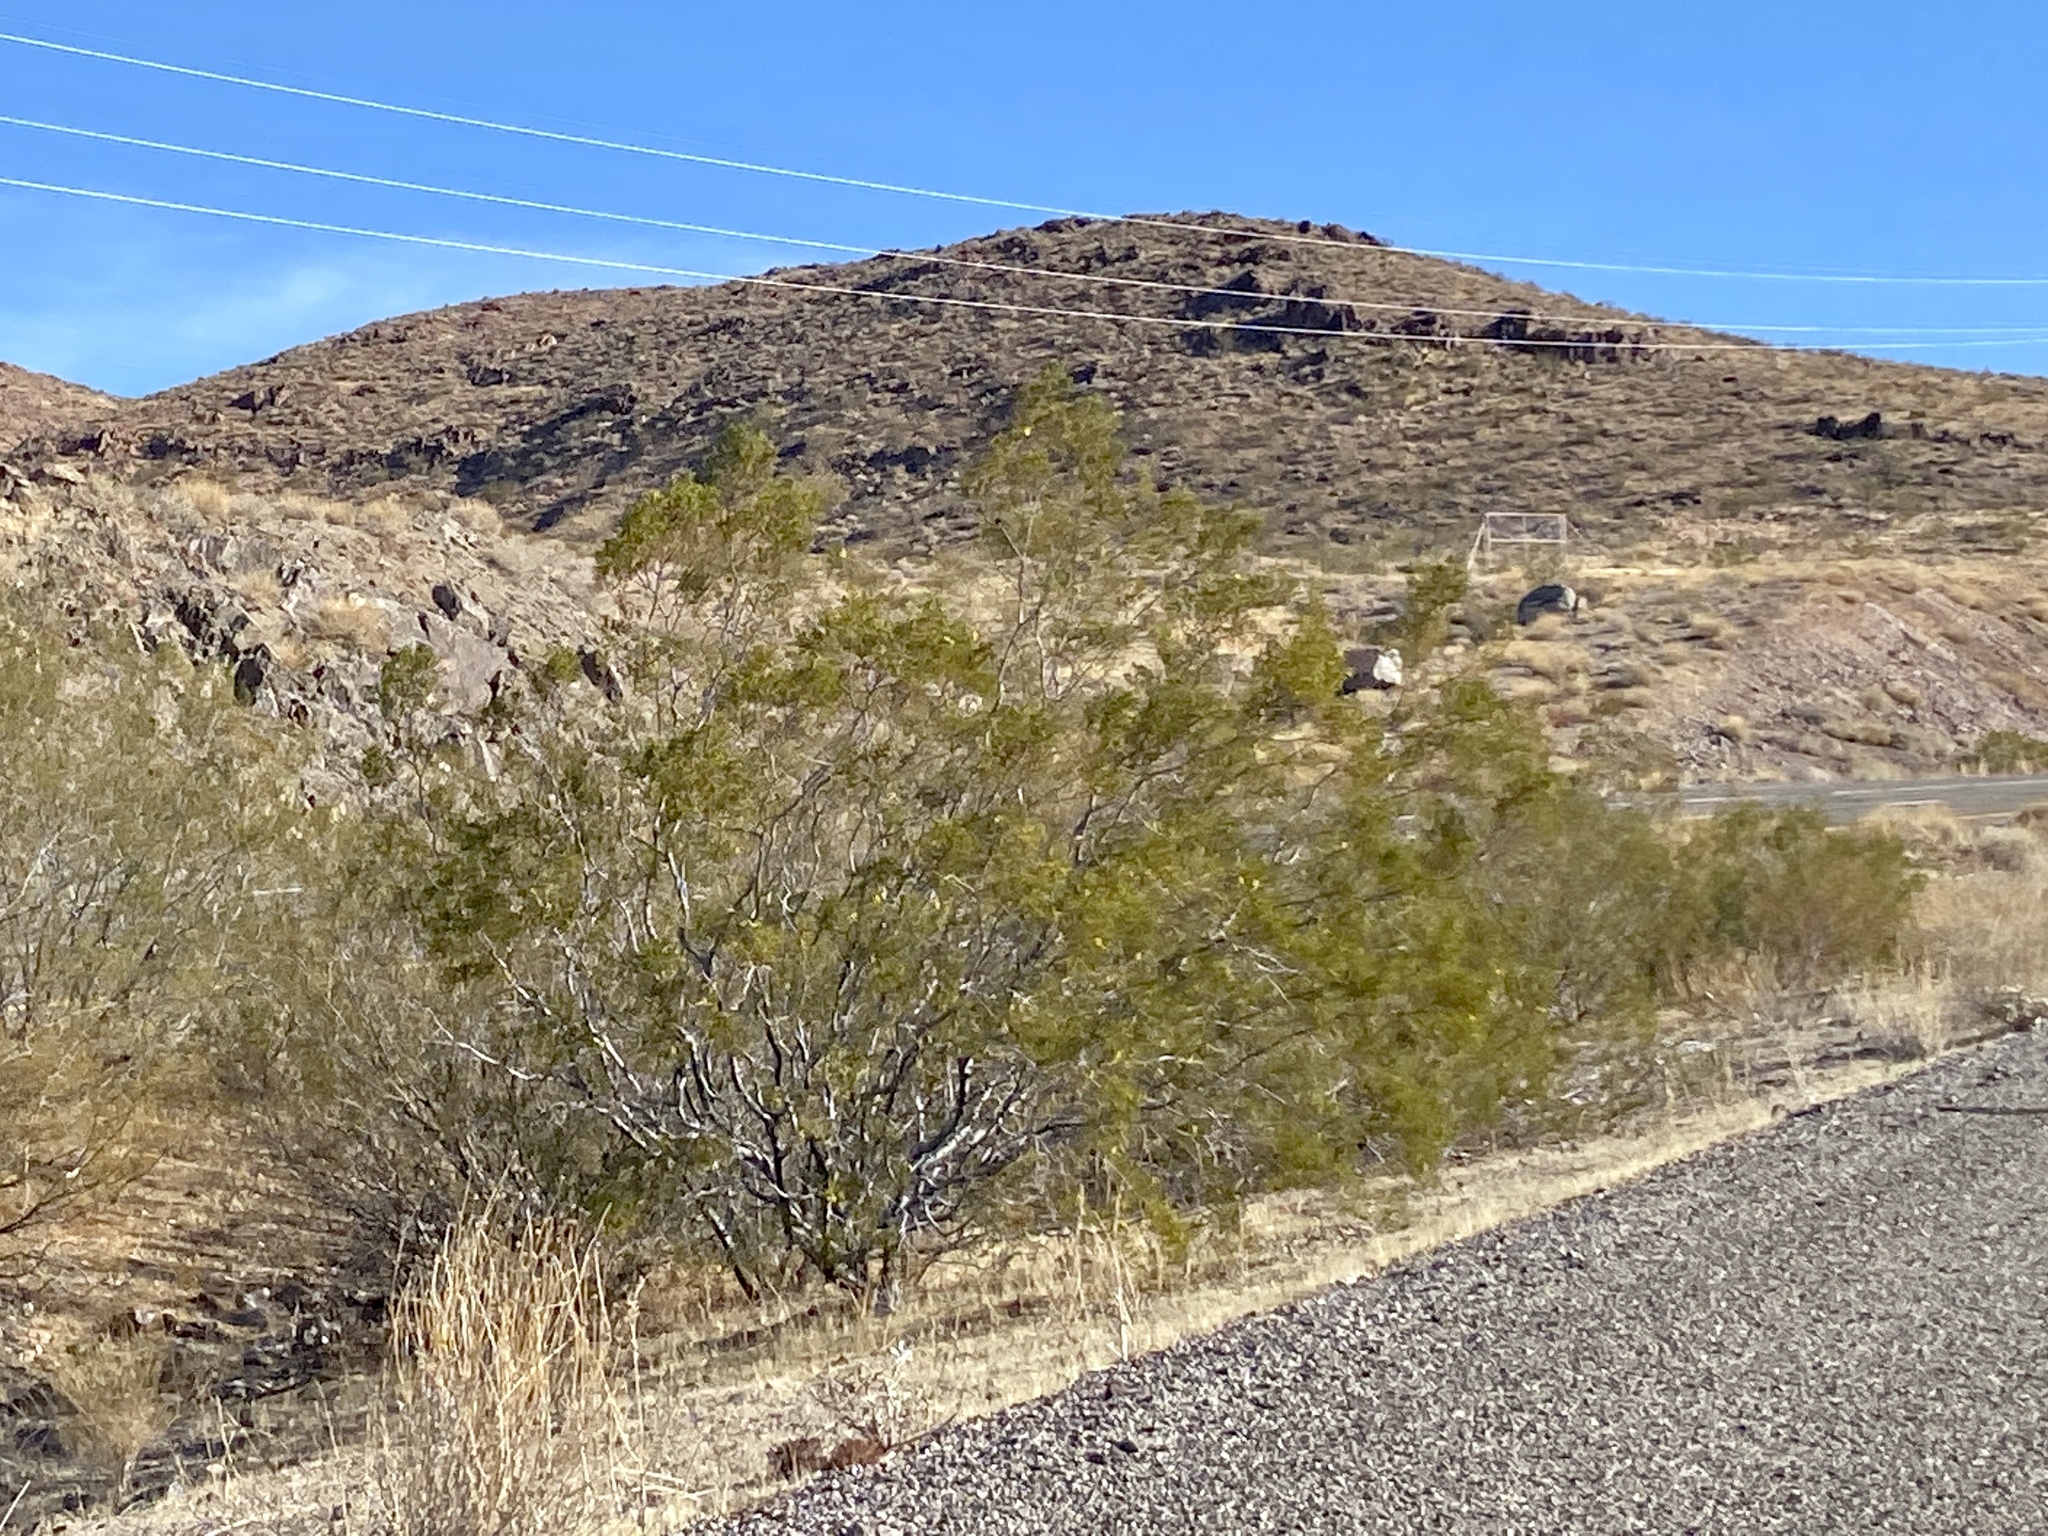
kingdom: Plantae
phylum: Tracheophyta
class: Magnoliopsida
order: Zygophyllales
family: Zygophyllaceae
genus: Larrea
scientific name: Larrea tridentata
